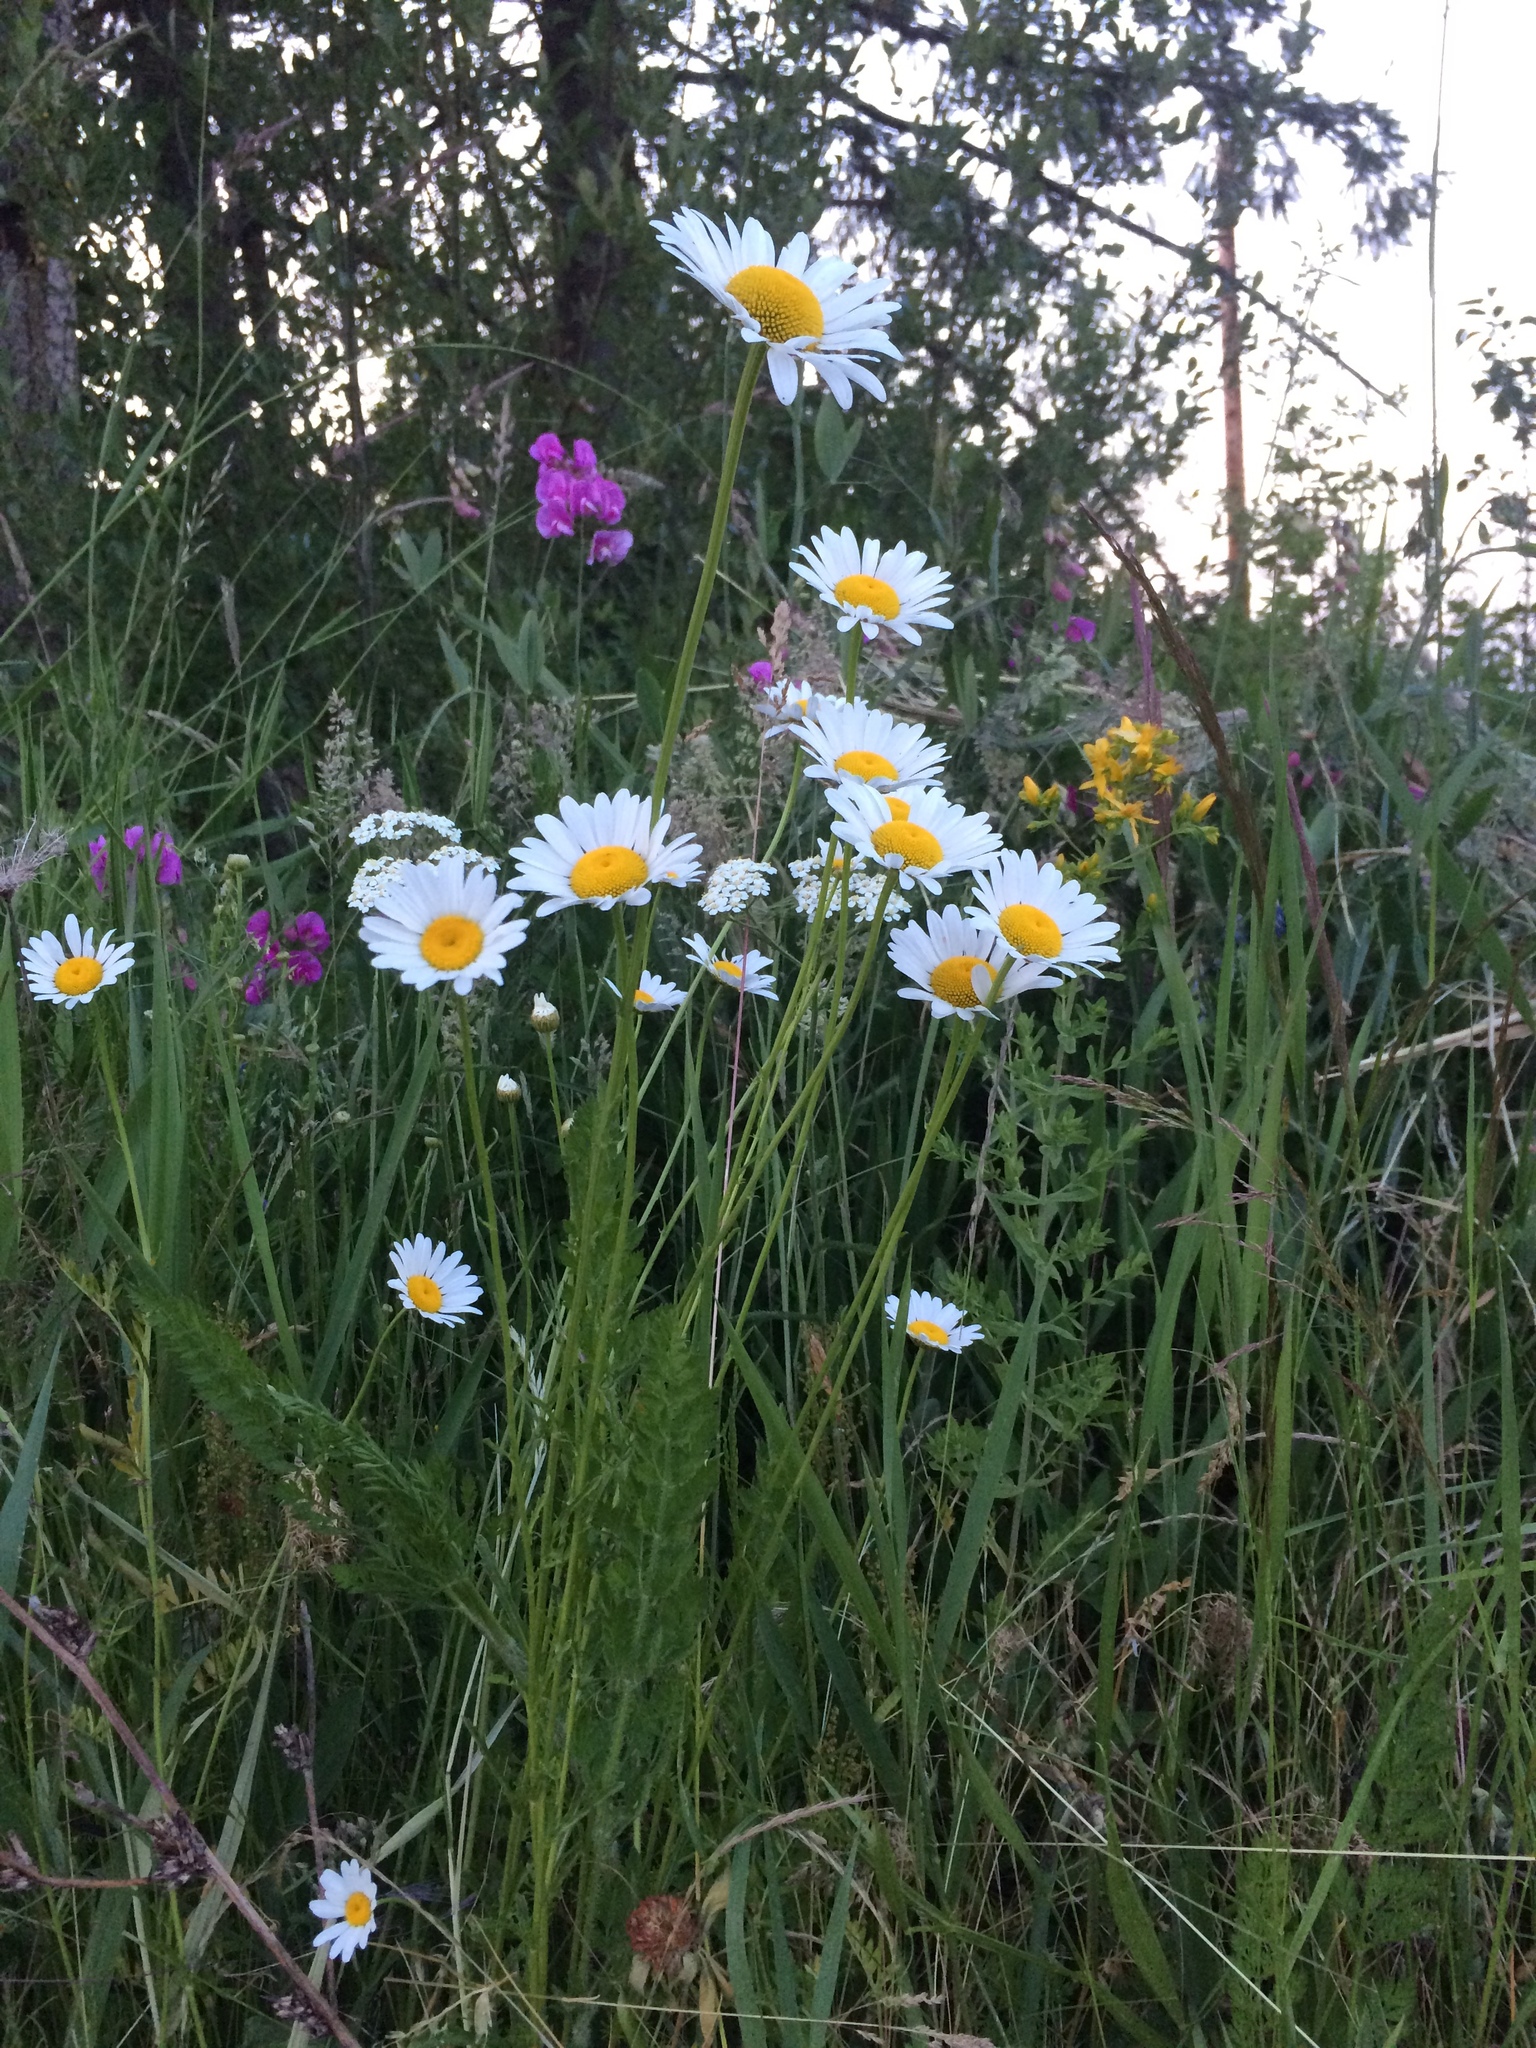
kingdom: Plantae
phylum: Tracheophyta
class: Magnoliopsida
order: Asterales
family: Asteraceae
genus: Leucanthemum
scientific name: Leucanthemum vulgare
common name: Oxeye daisy
